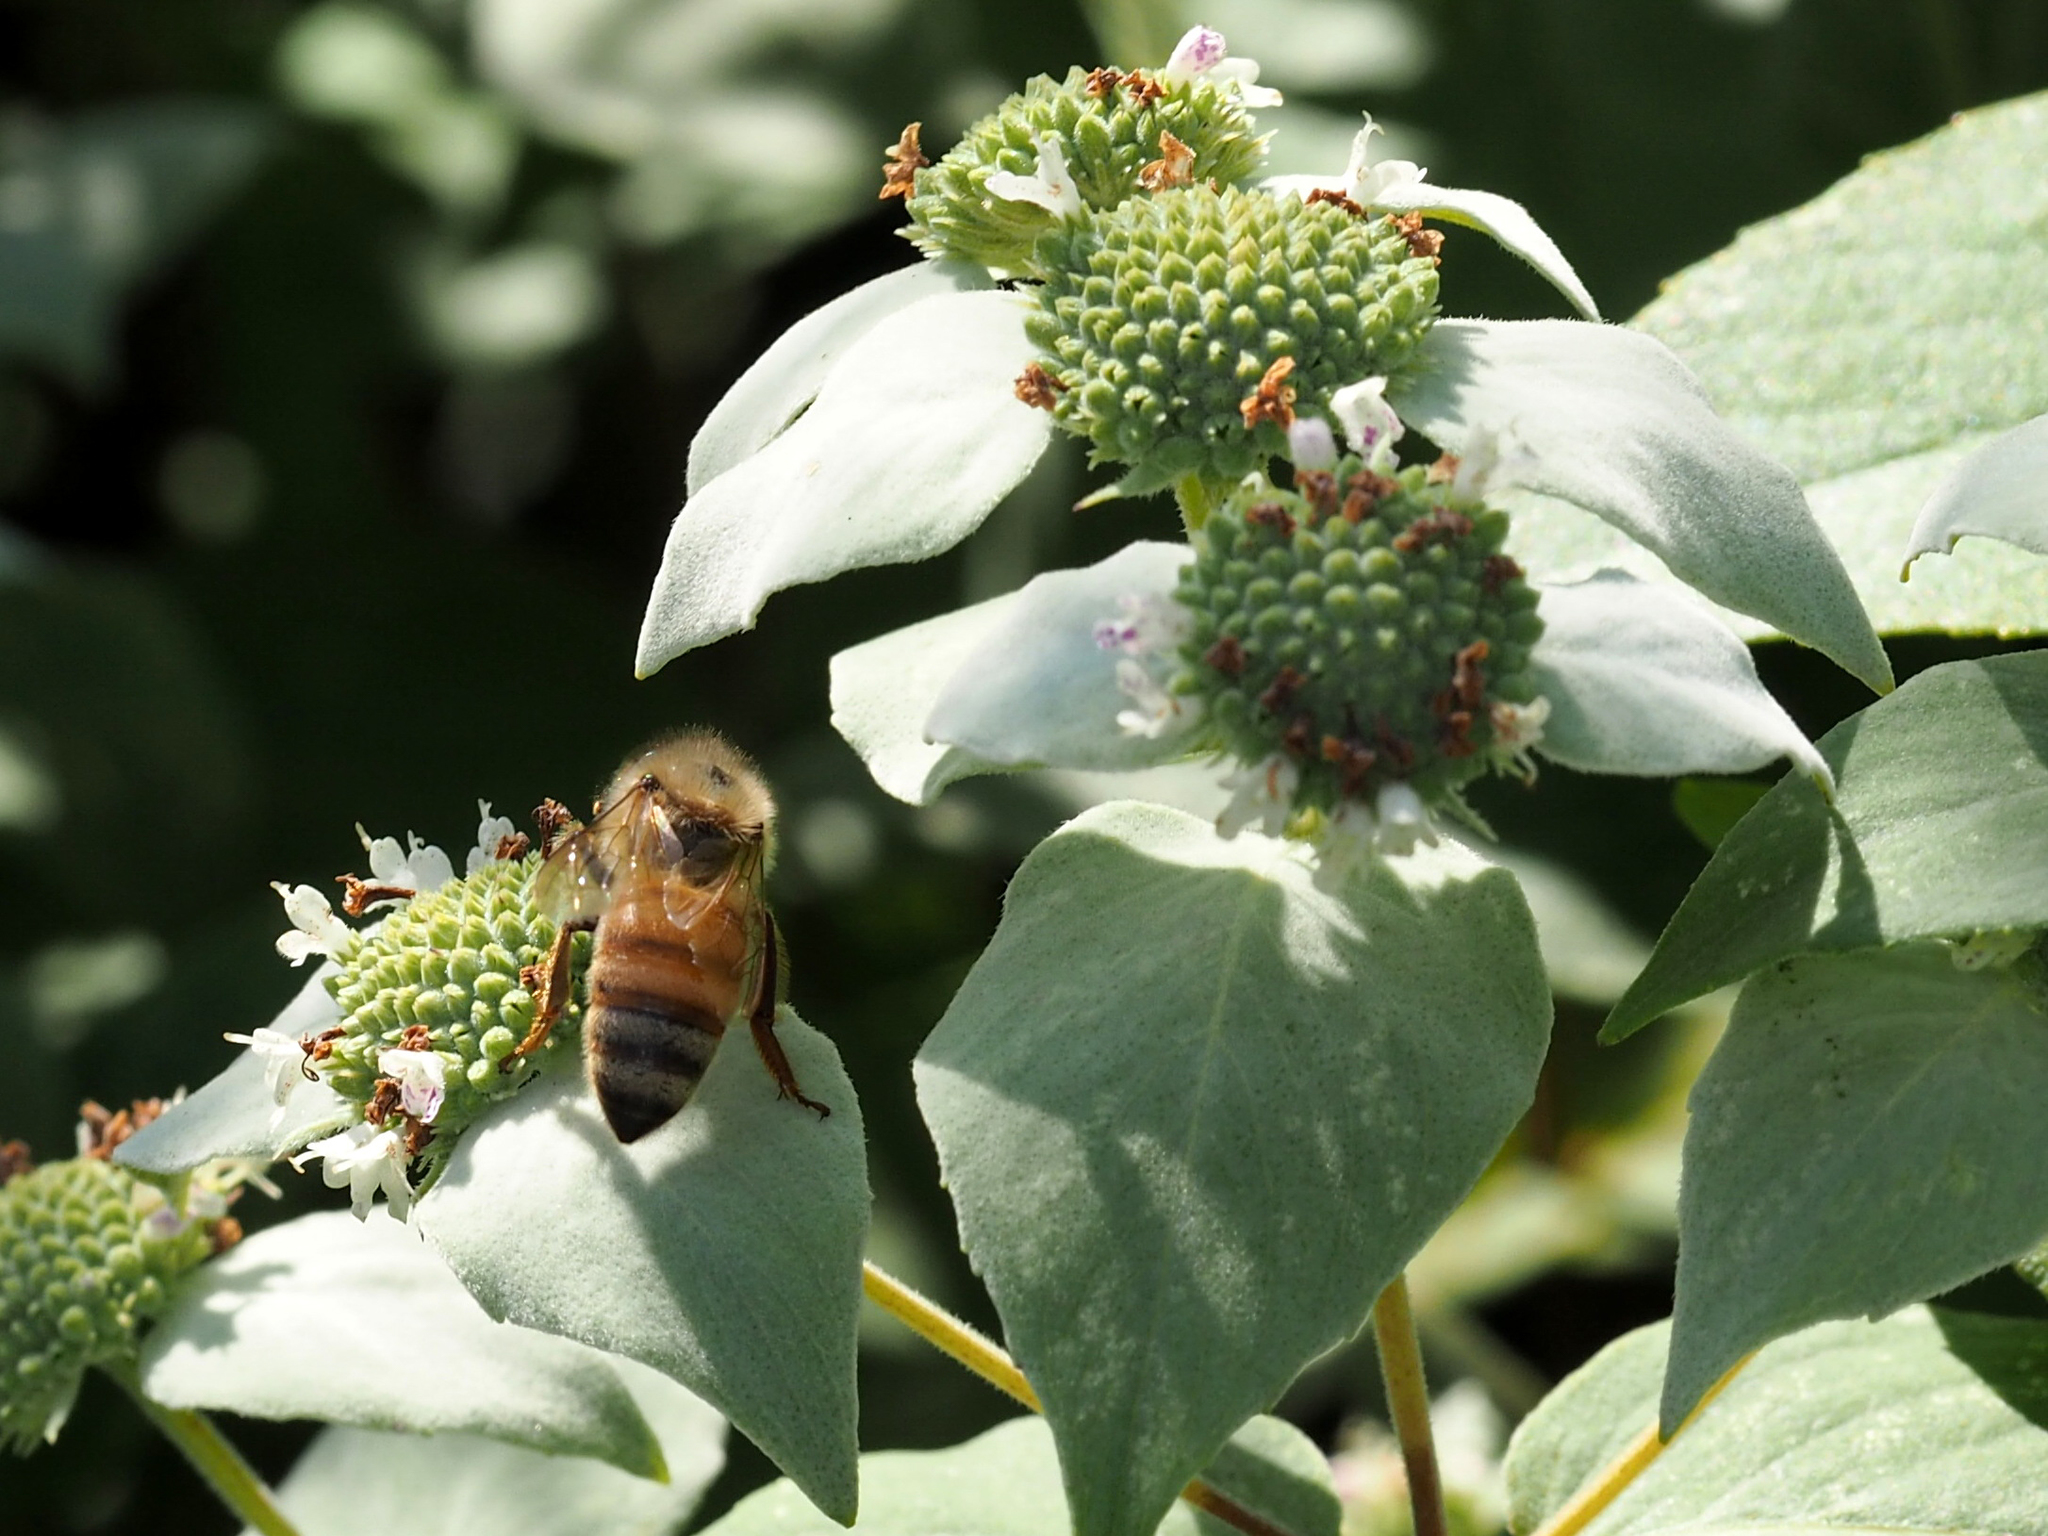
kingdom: Animalia
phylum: Arthropoda
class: Insecta
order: Hymenoptera
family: Apidae
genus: Apis
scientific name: Apis mellifera
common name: Honey bee
